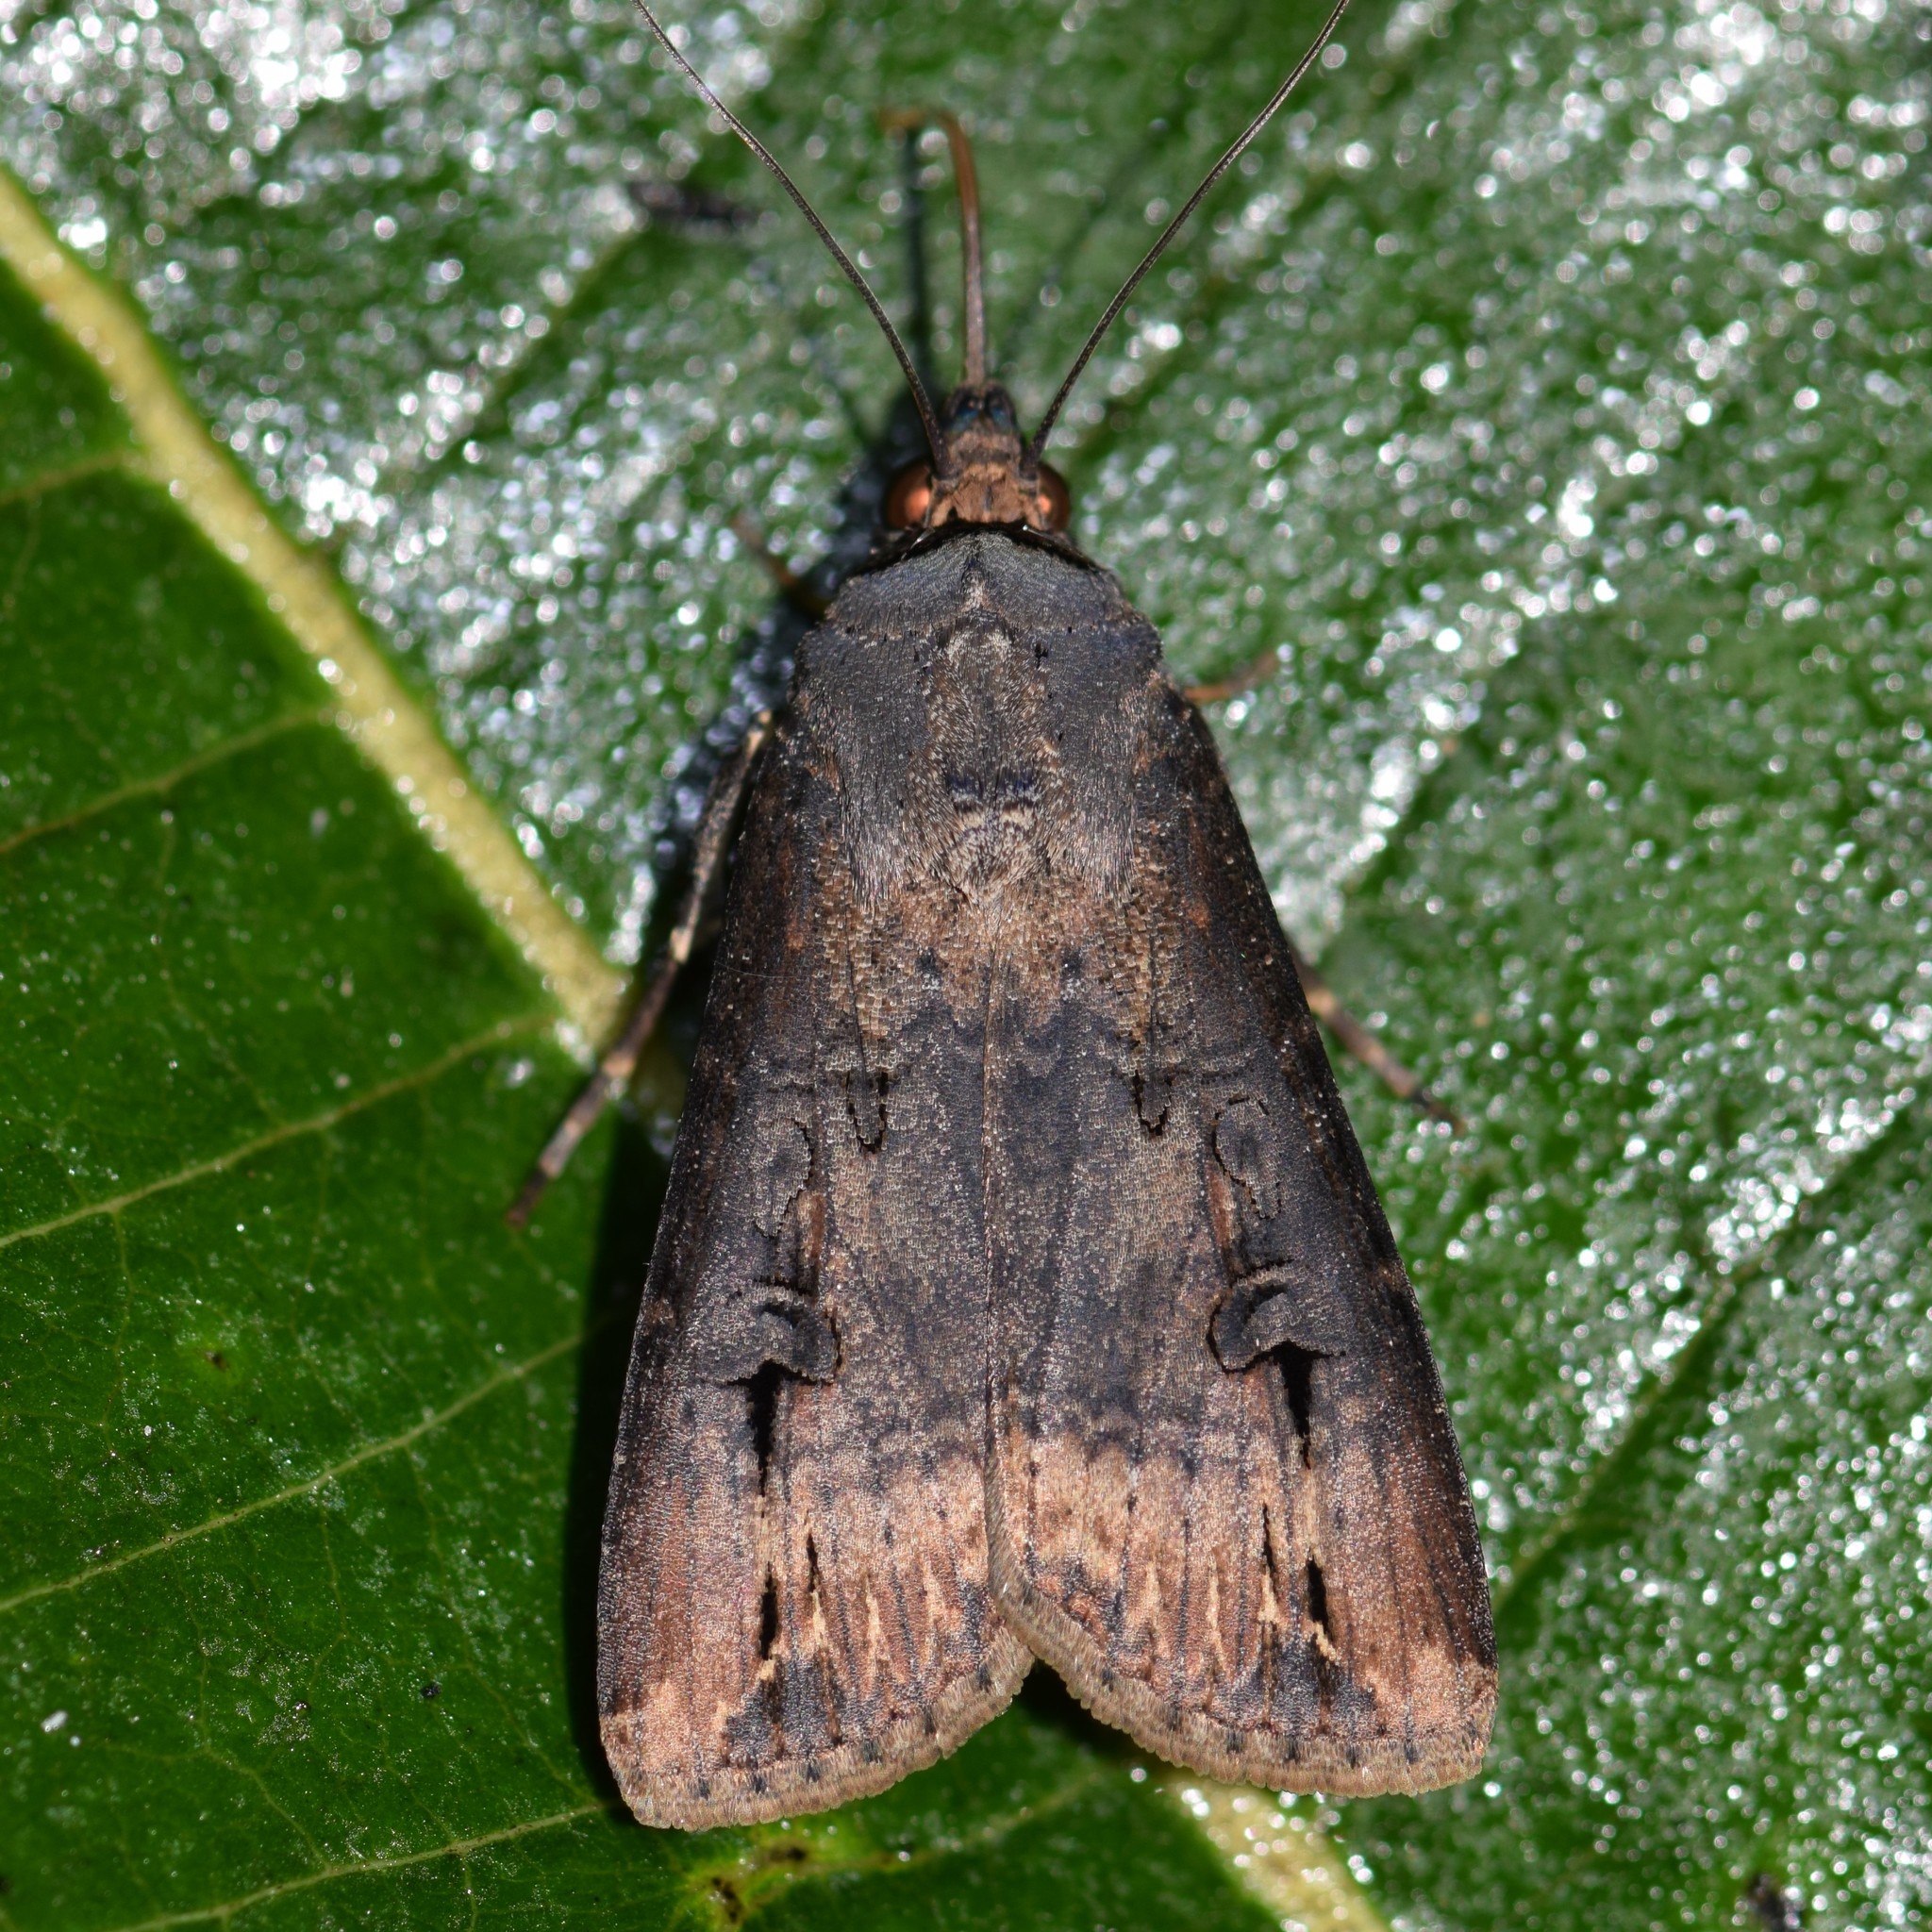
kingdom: Animalia
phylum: Arthropoda
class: Insecta
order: Lepidoptera
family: Noctuidae
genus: Agrotis
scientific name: Agrotis ipsilon
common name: Dark sword-grass
